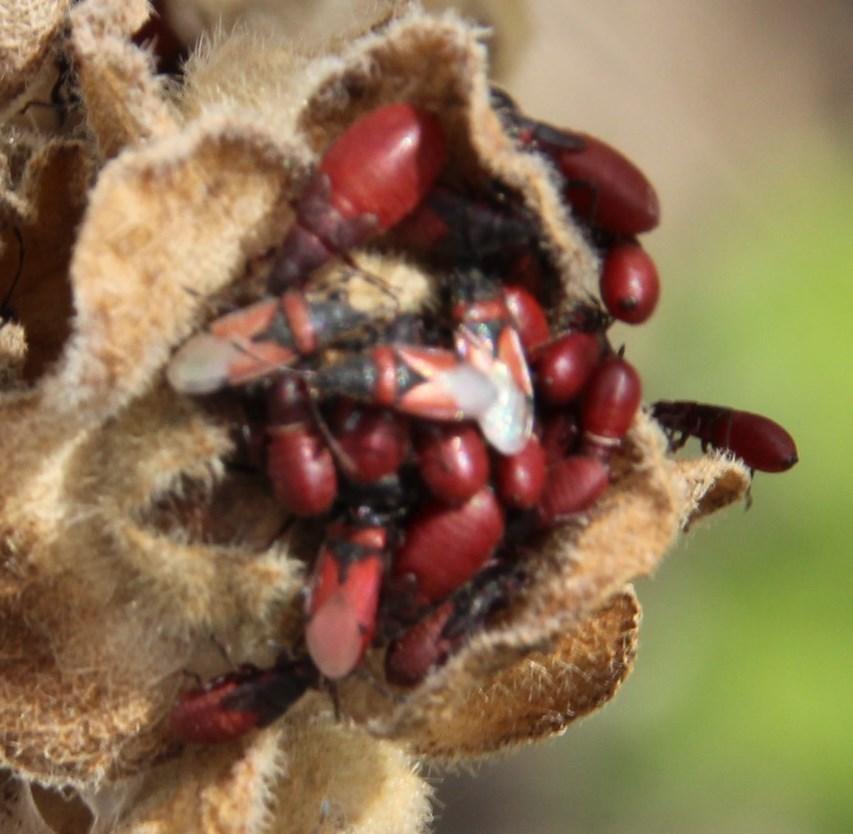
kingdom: Animalia
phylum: Arthropoda
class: Insecta
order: Hemiptera
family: Oxycarenidae
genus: Oxycarenus
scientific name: Oxycarenus annulipes
